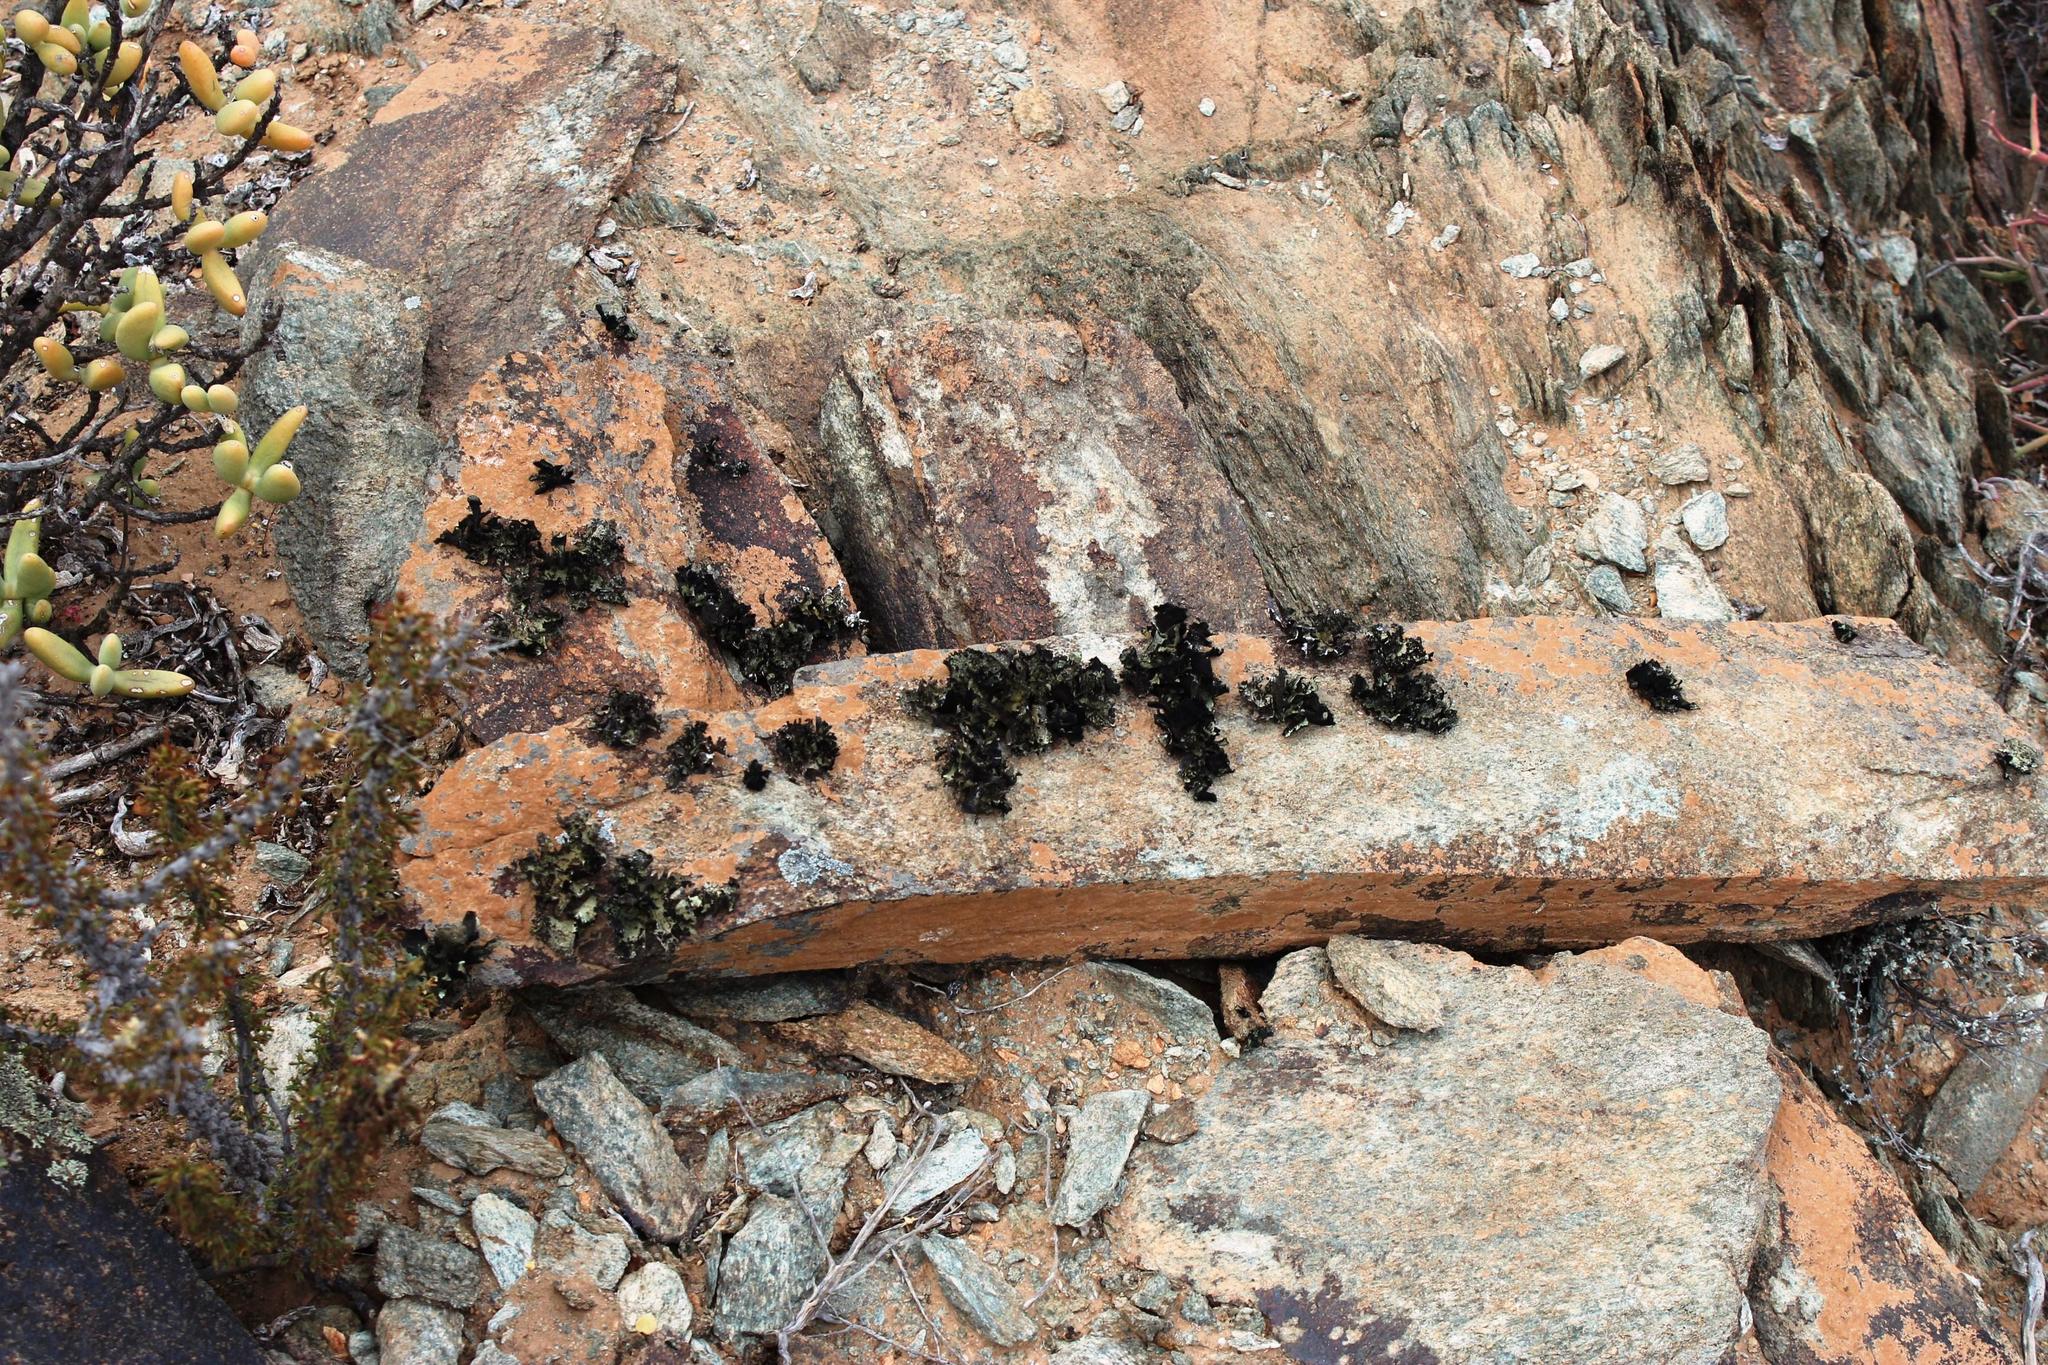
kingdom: Fungi
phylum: Ascomycota
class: Lecanoromycetes
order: Lecanorales
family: Parmeliaceae
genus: Xanthoparmelia
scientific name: Xanthoparmelia hottentotta
